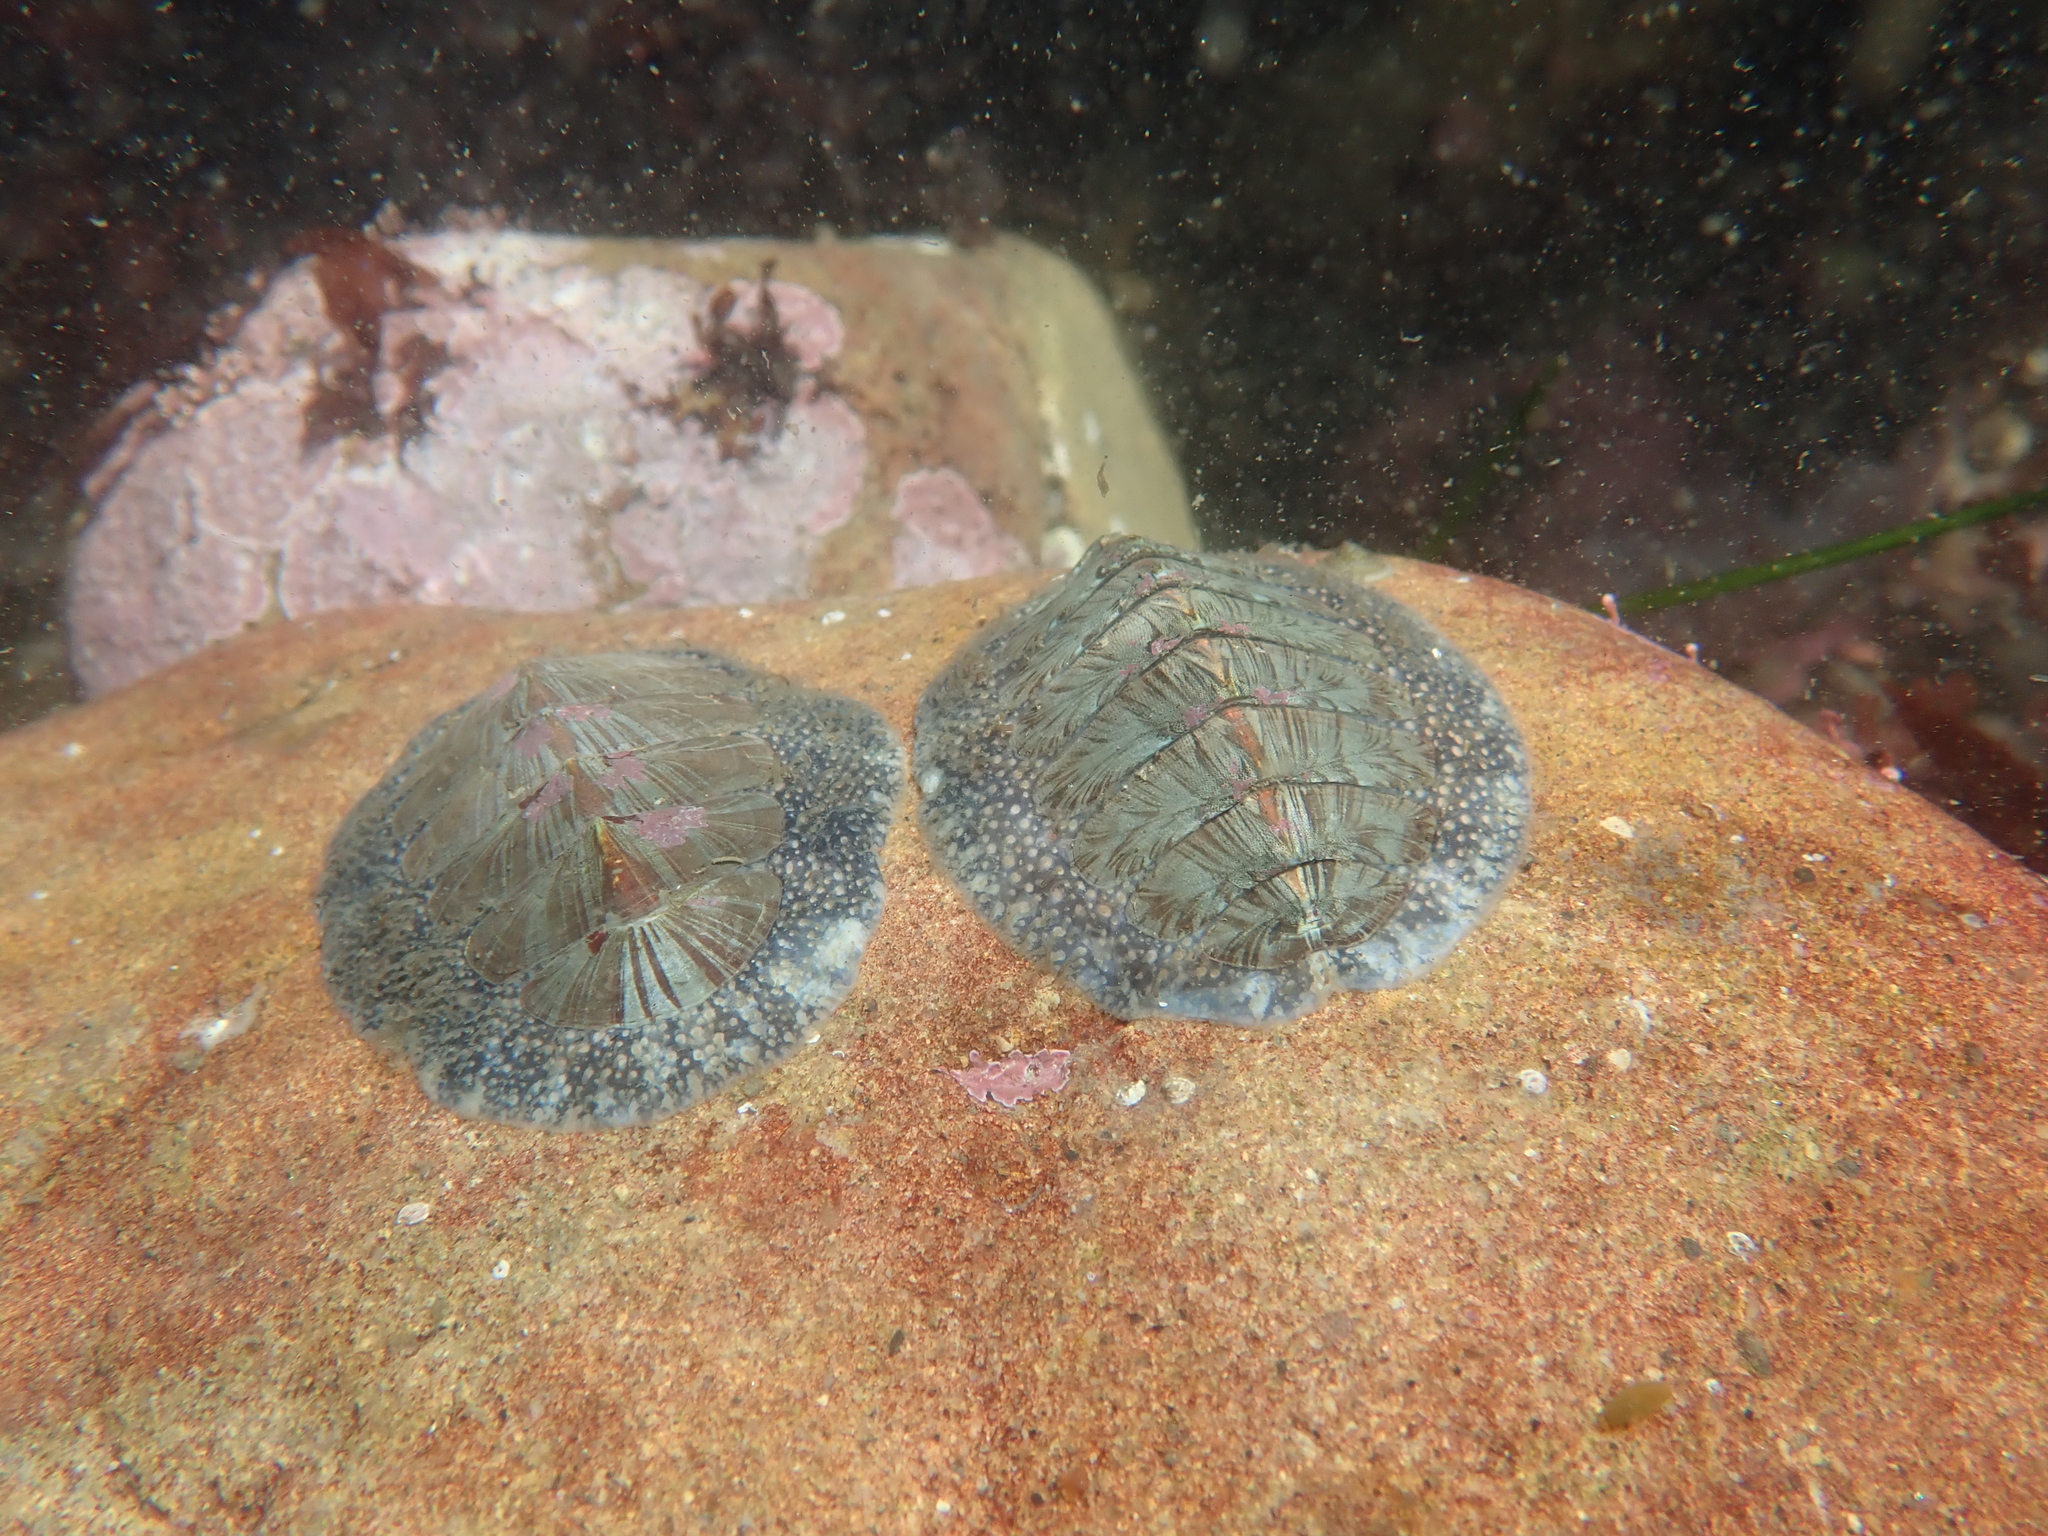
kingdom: Animalia
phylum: Mollusca
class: Polyplacophora
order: Chitonida
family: Mopaliidae
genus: Mopalia
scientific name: Mopalia lignosa
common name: Woody chiton
